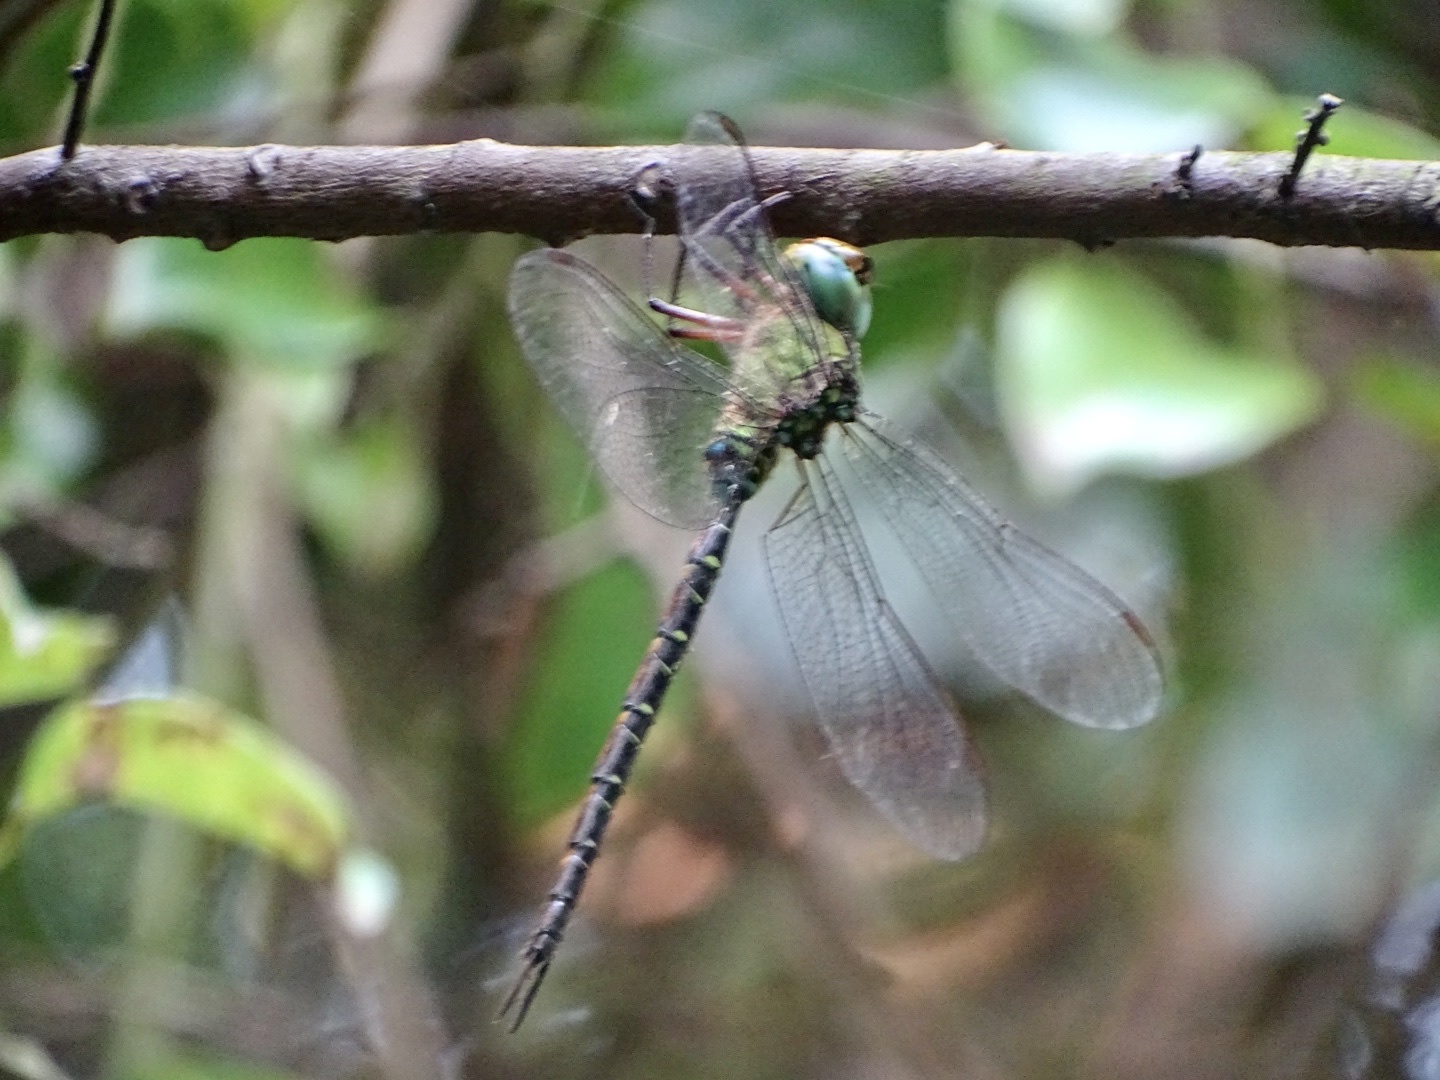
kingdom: Animalia
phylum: Arthropoda
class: Insecta
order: Odonata
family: Aeshnidae
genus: Gynacantha
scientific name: Gynacantha japonica
